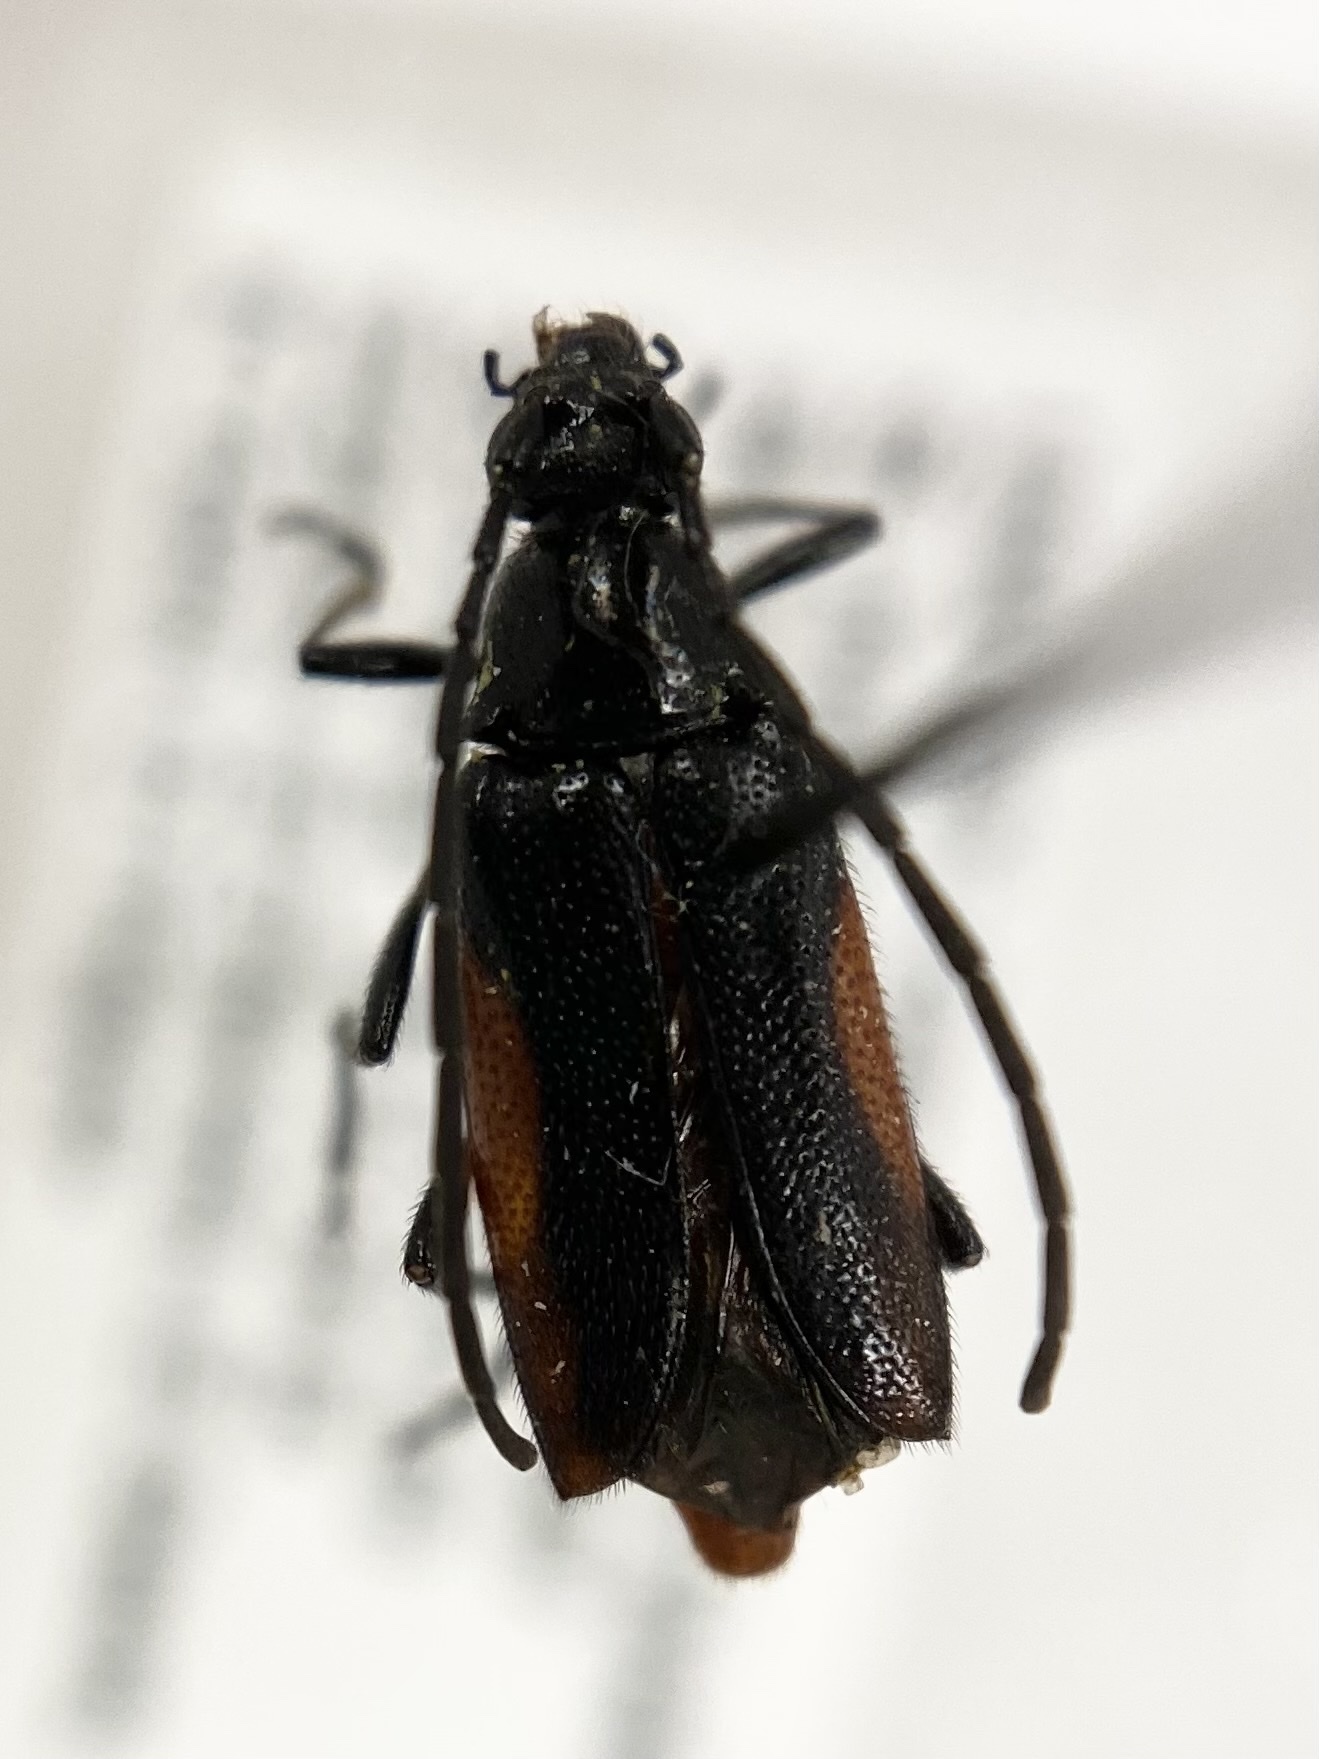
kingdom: Animalia
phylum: Arthropoda
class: Insecta
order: Coleoptera
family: Cerambycidae
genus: Pseudostrangalia
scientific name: Pseudostrangalia cruentata
